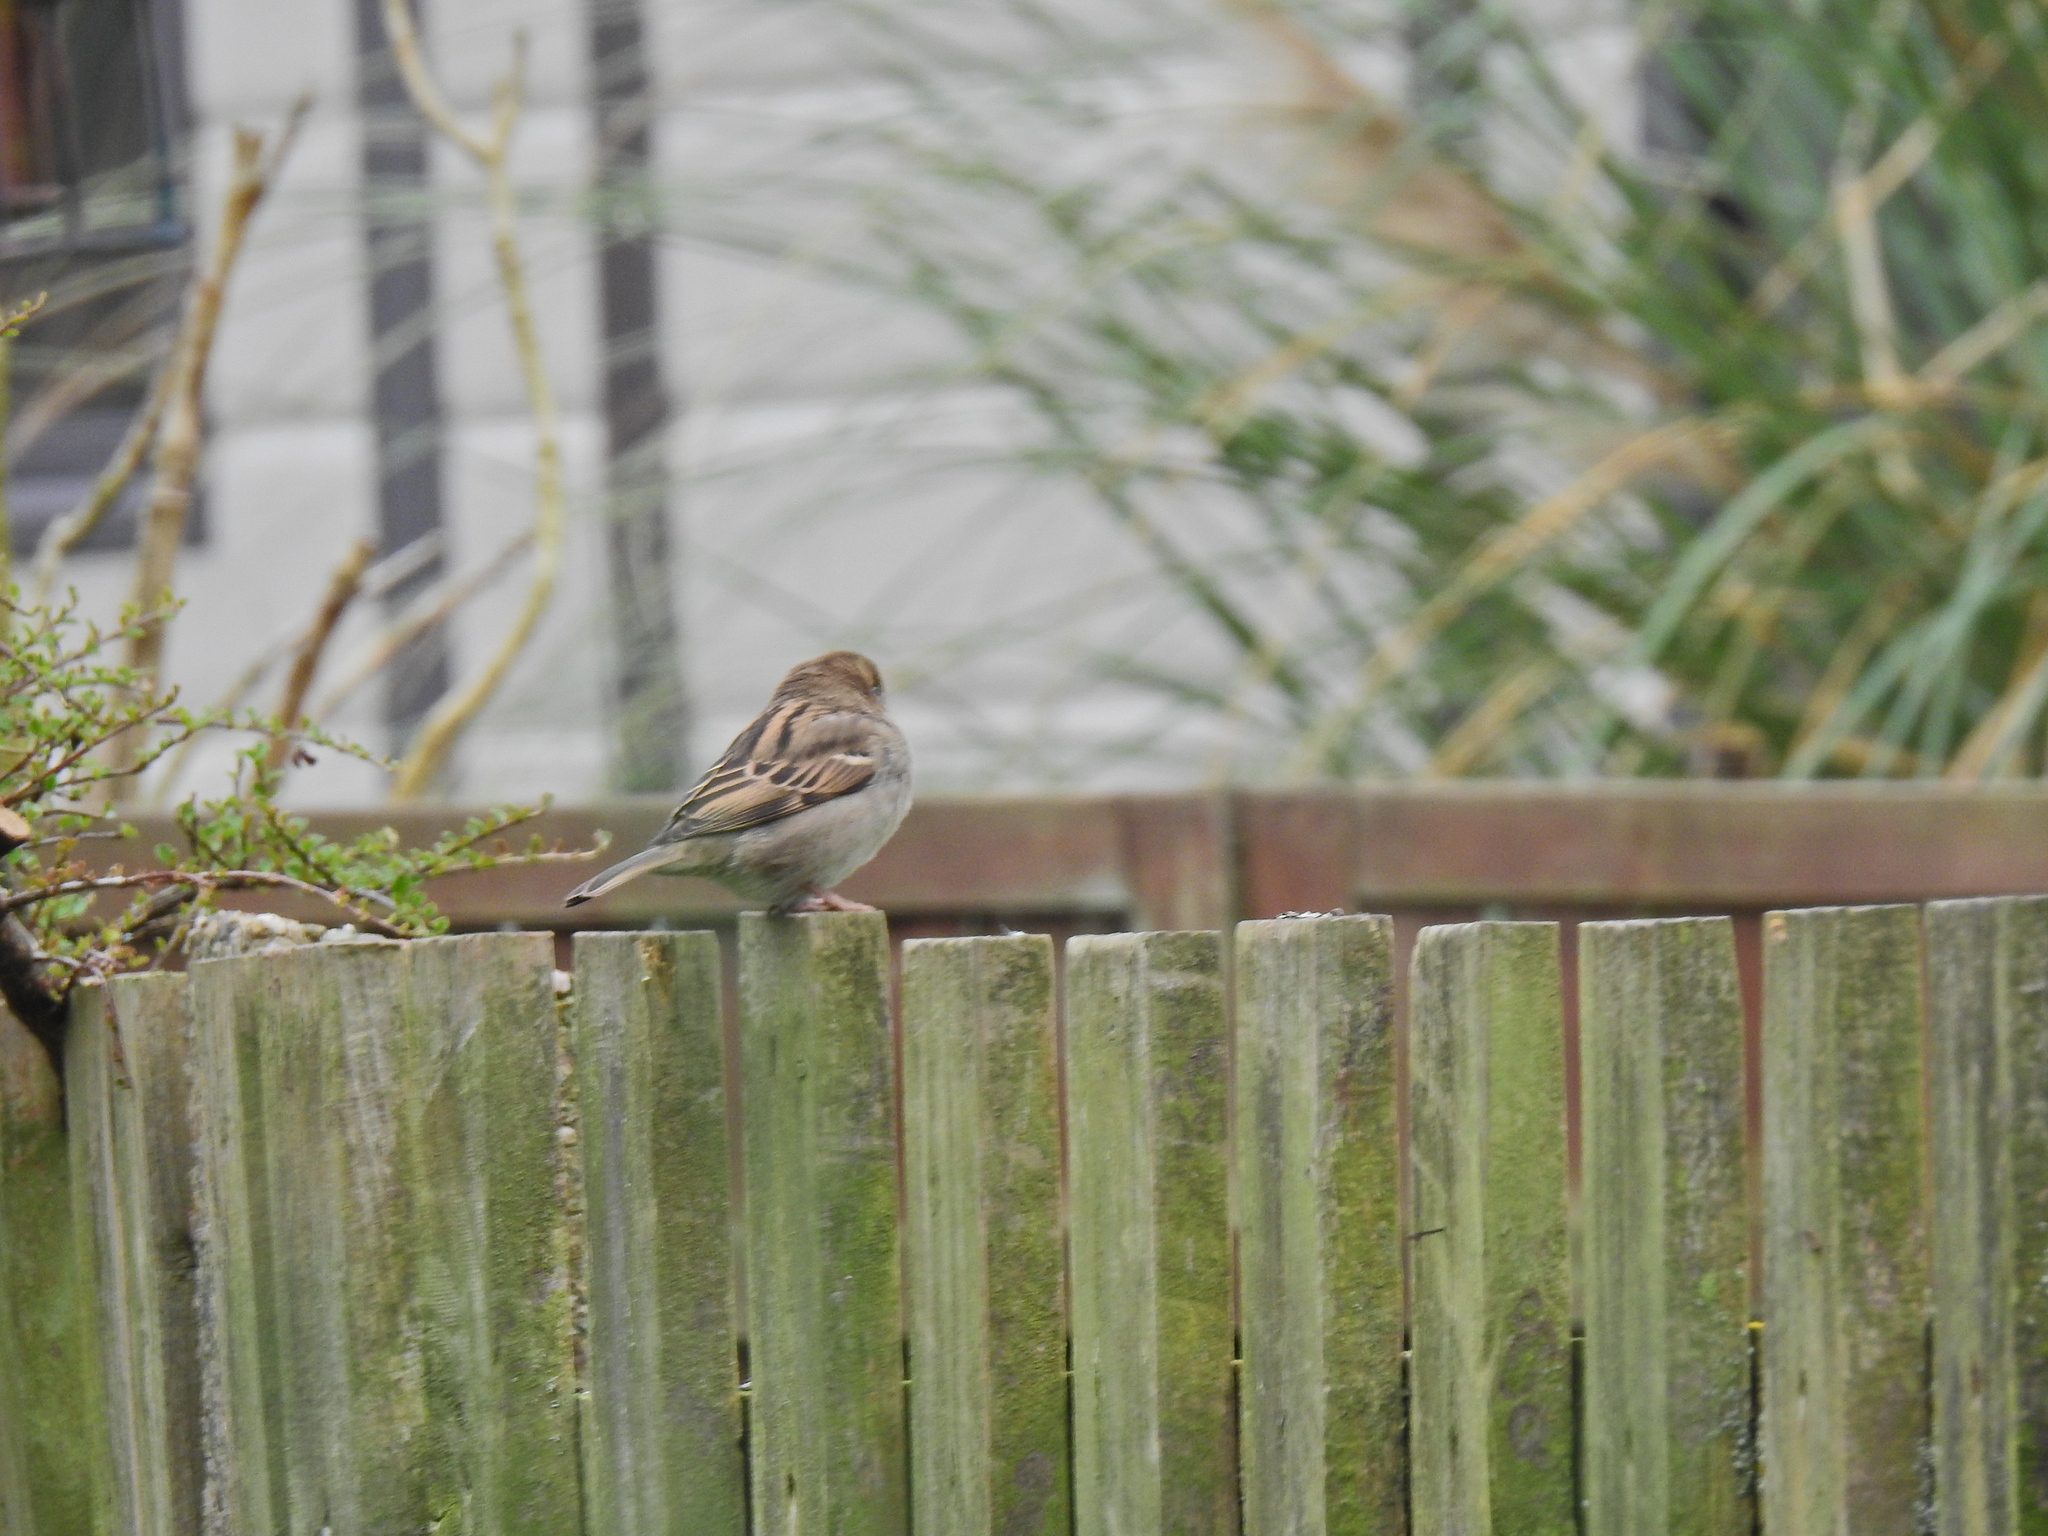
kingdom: Animalia
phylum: Chordata
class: Aves
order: Passeriformes
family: Passeridae
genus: Passer
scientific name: Passer domesticus
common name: House sparrow
